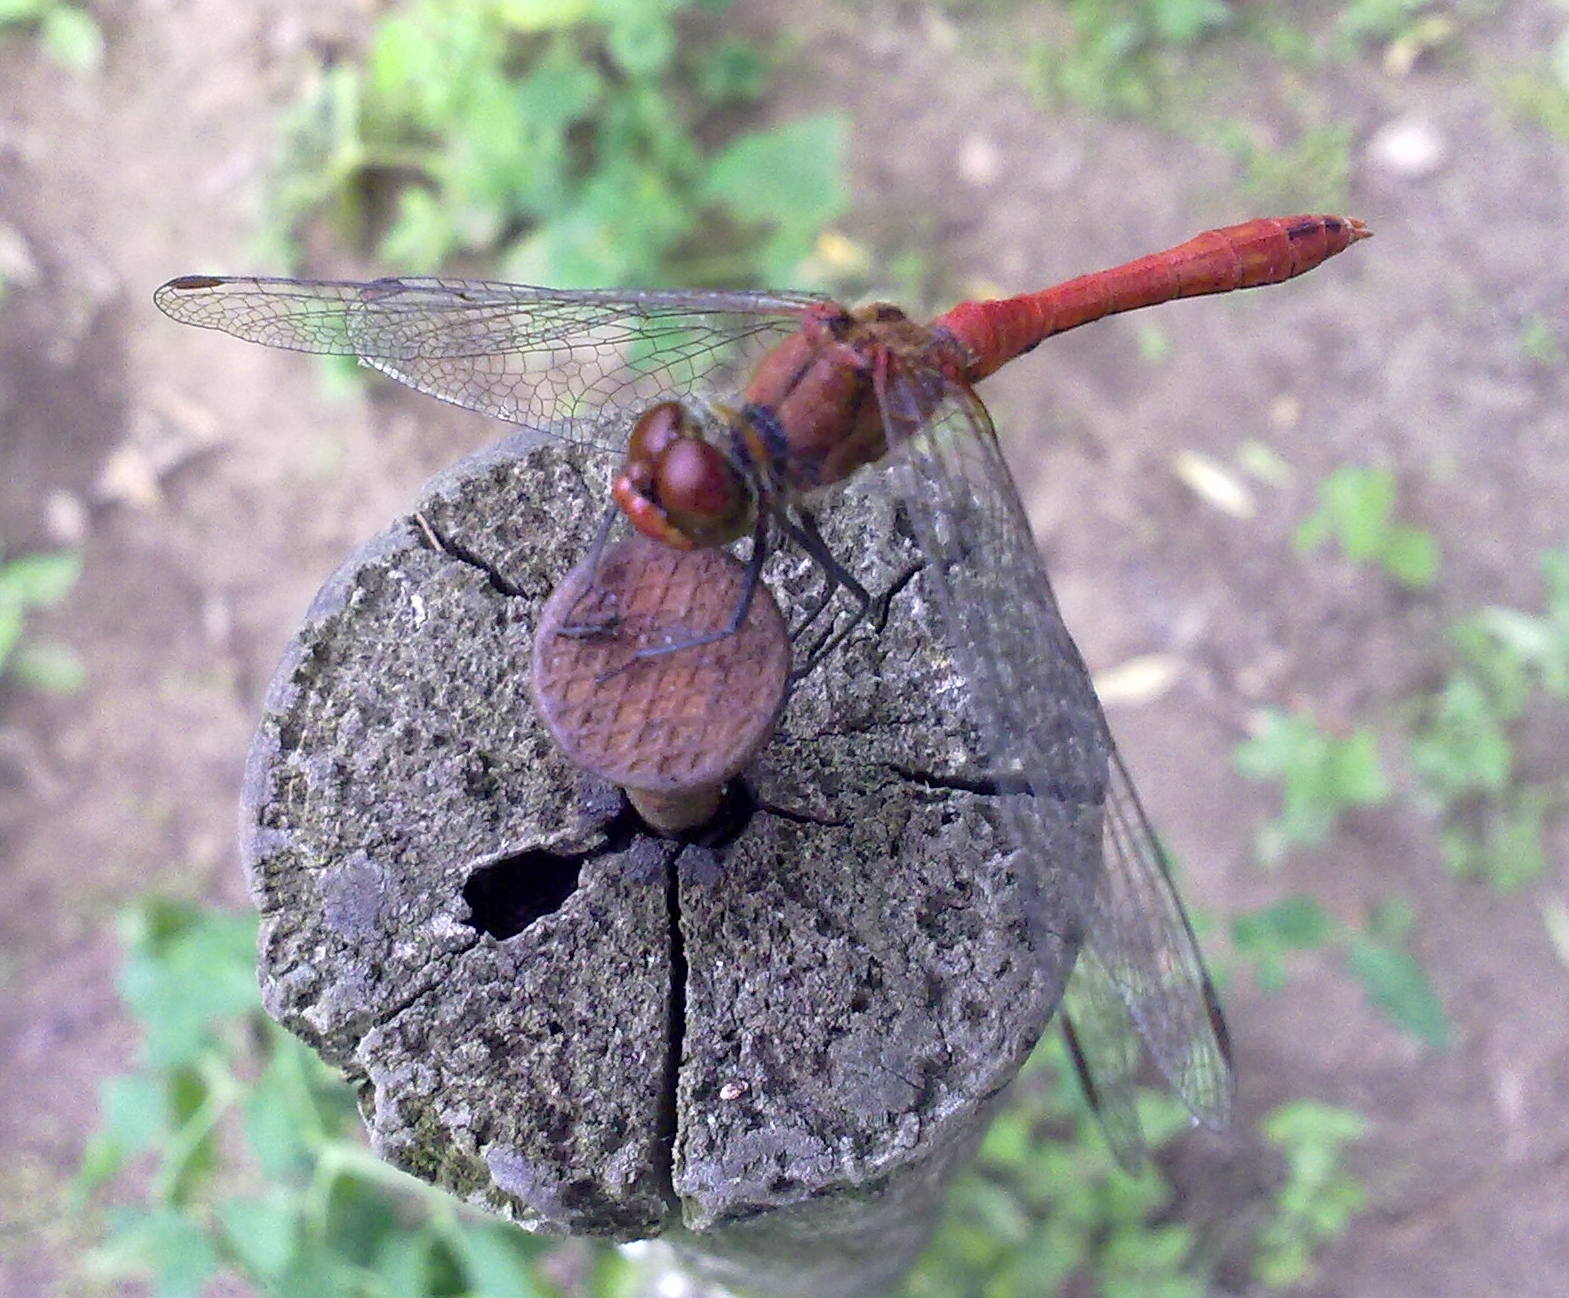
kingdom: Animalia
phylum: Arthropoda
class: Insecta
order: Odonata
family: Libellulidae
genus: Sympetrum
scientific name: Sympetrum sanguineum
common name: Ruddy darter
